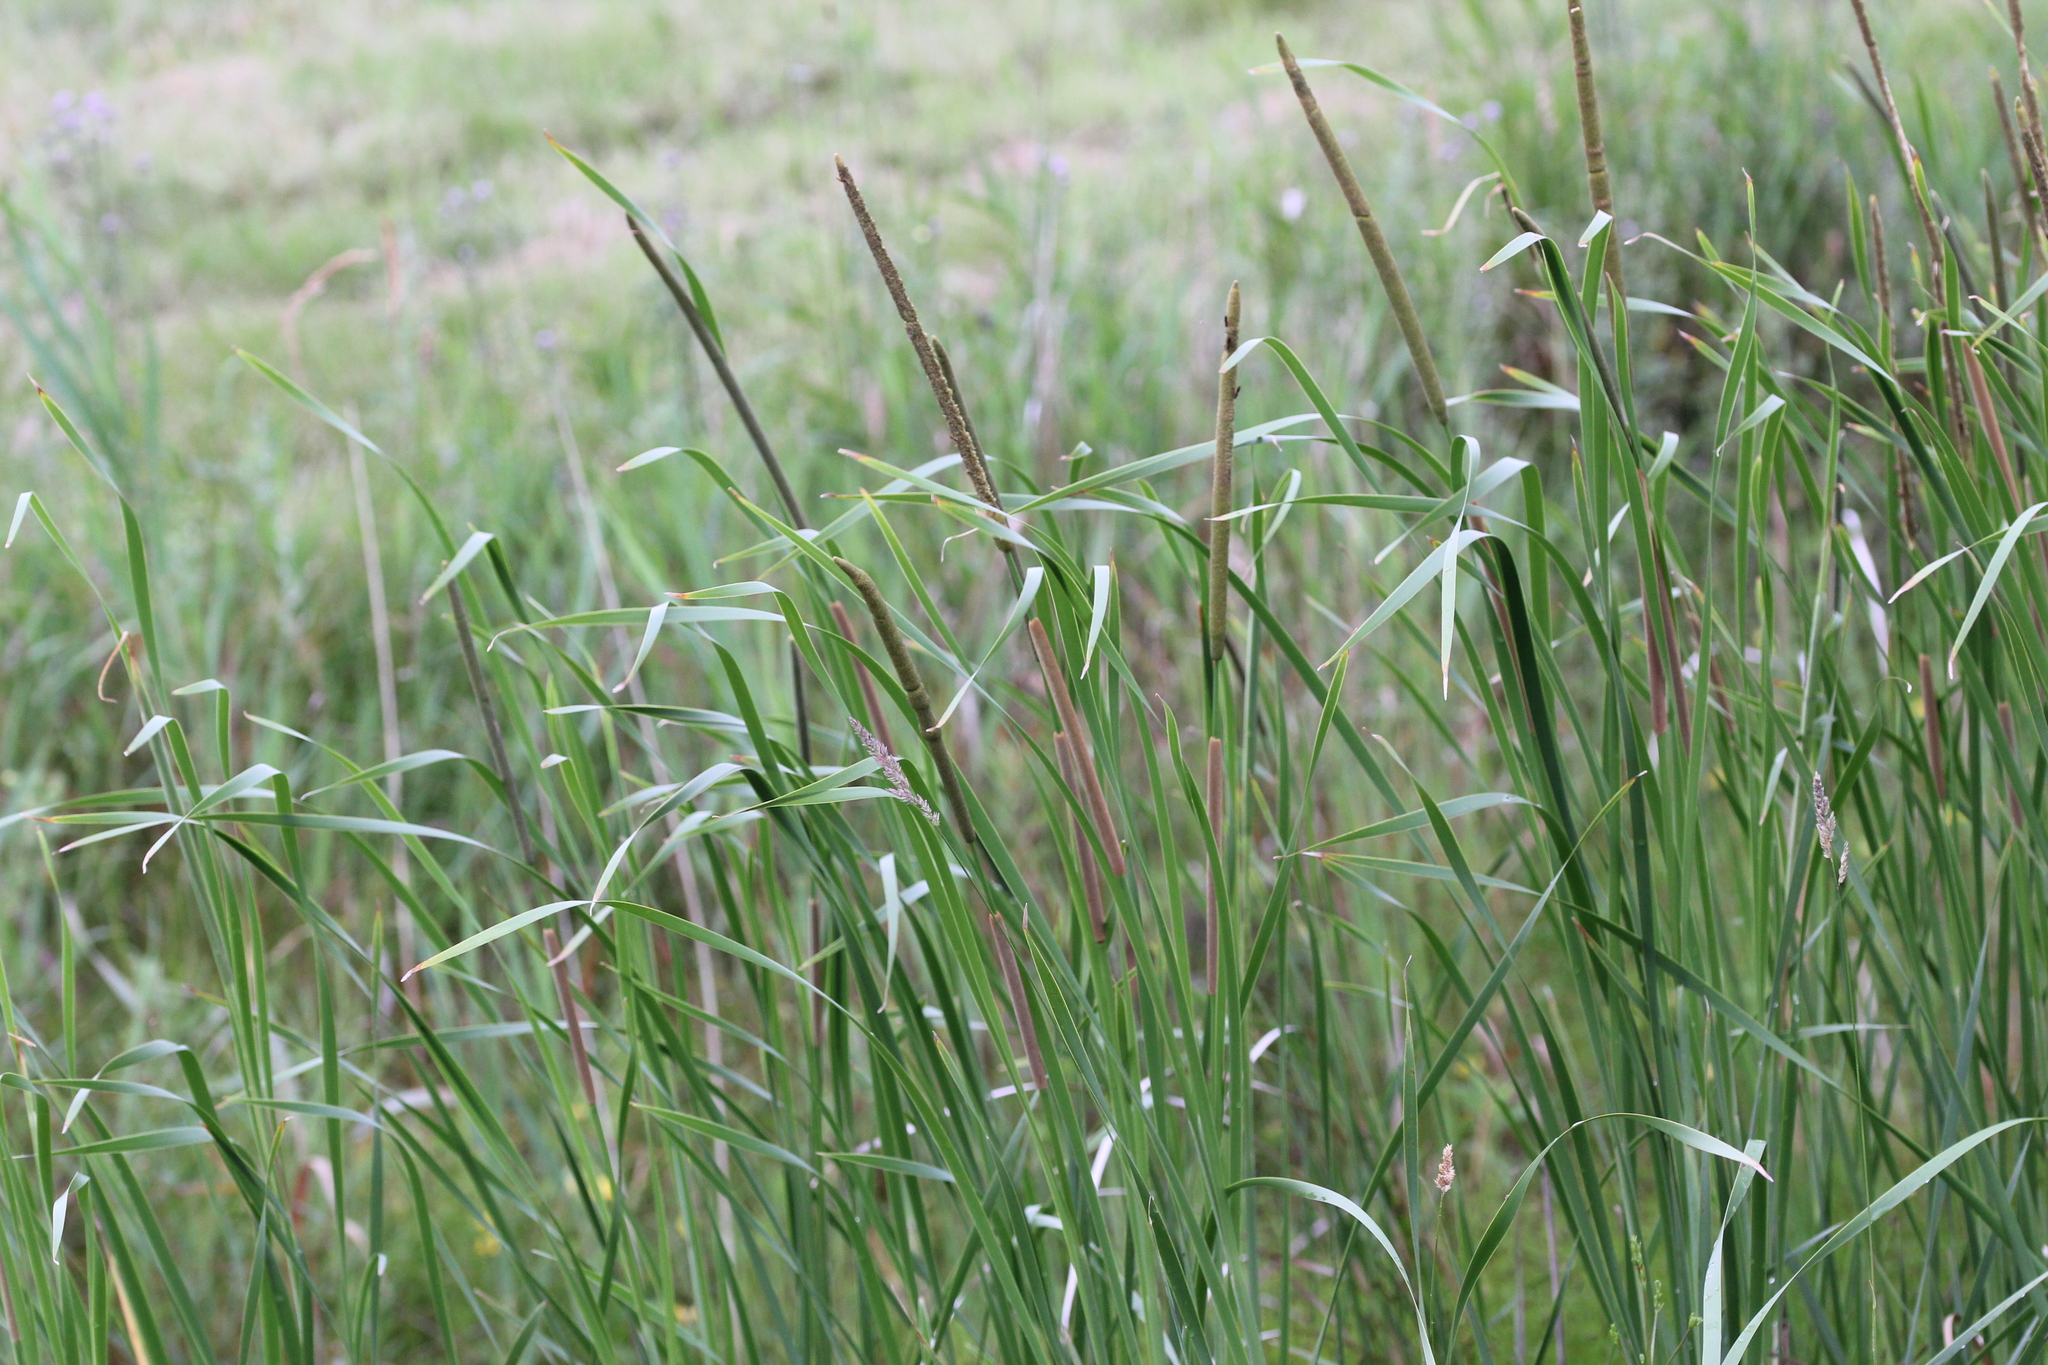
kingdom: Plantae
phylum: Tracheophyta
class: Liliopsida
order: Poales
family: Typhaceae
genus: Typha
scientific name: Typha glauca
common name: Blue cattail
